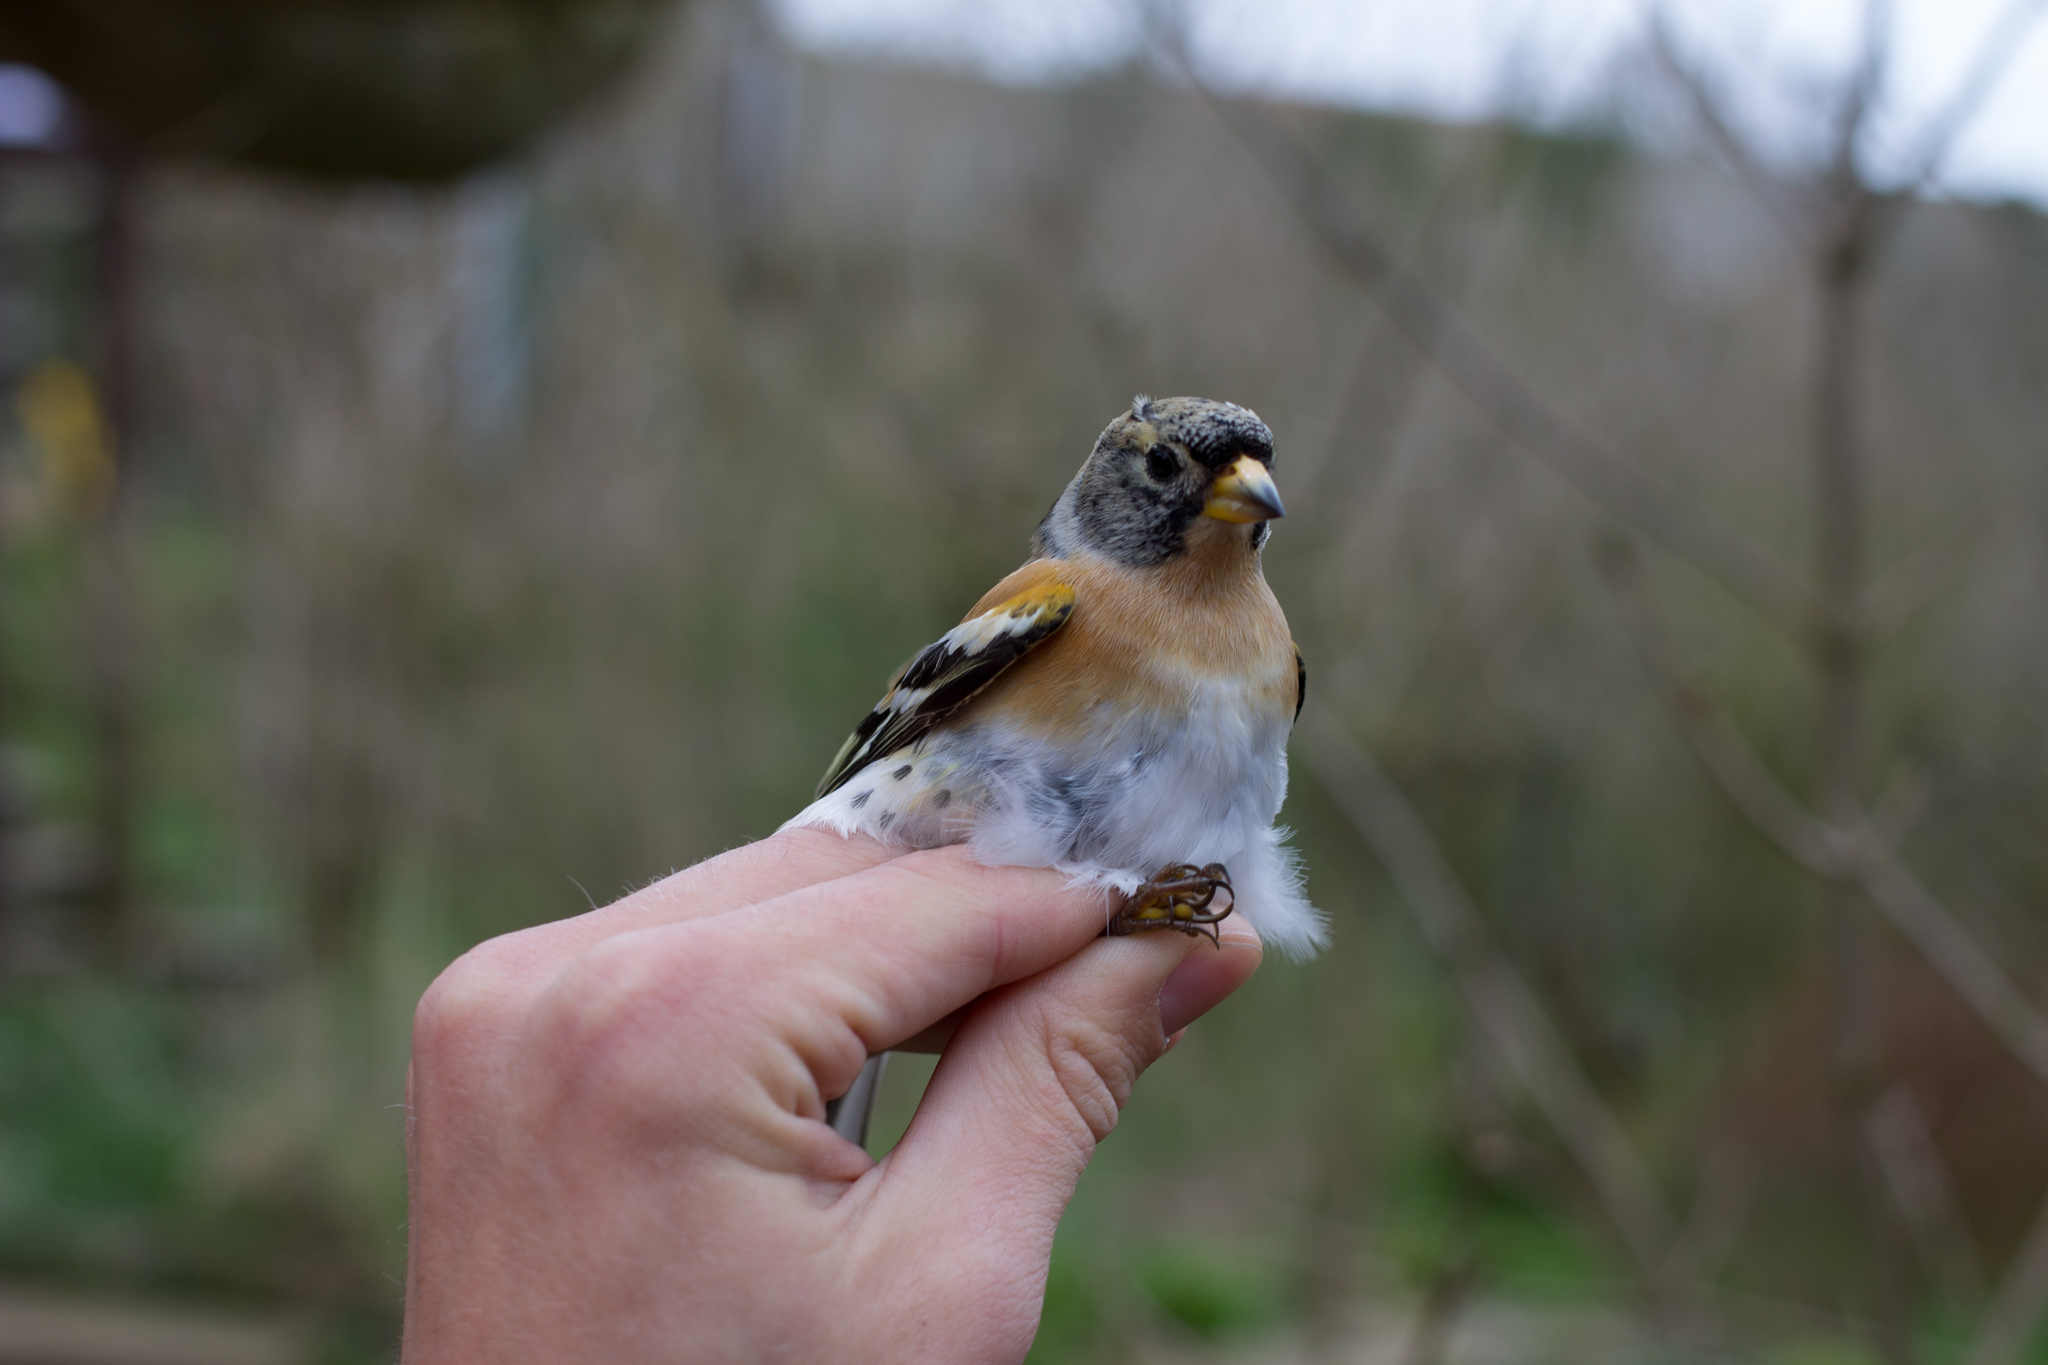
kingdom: Animalia
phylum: Chordata
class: Aves
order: Passeriformes
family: Fringillidae
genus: Fringilla
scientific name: Fringilla montifringilla
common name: Brambling
